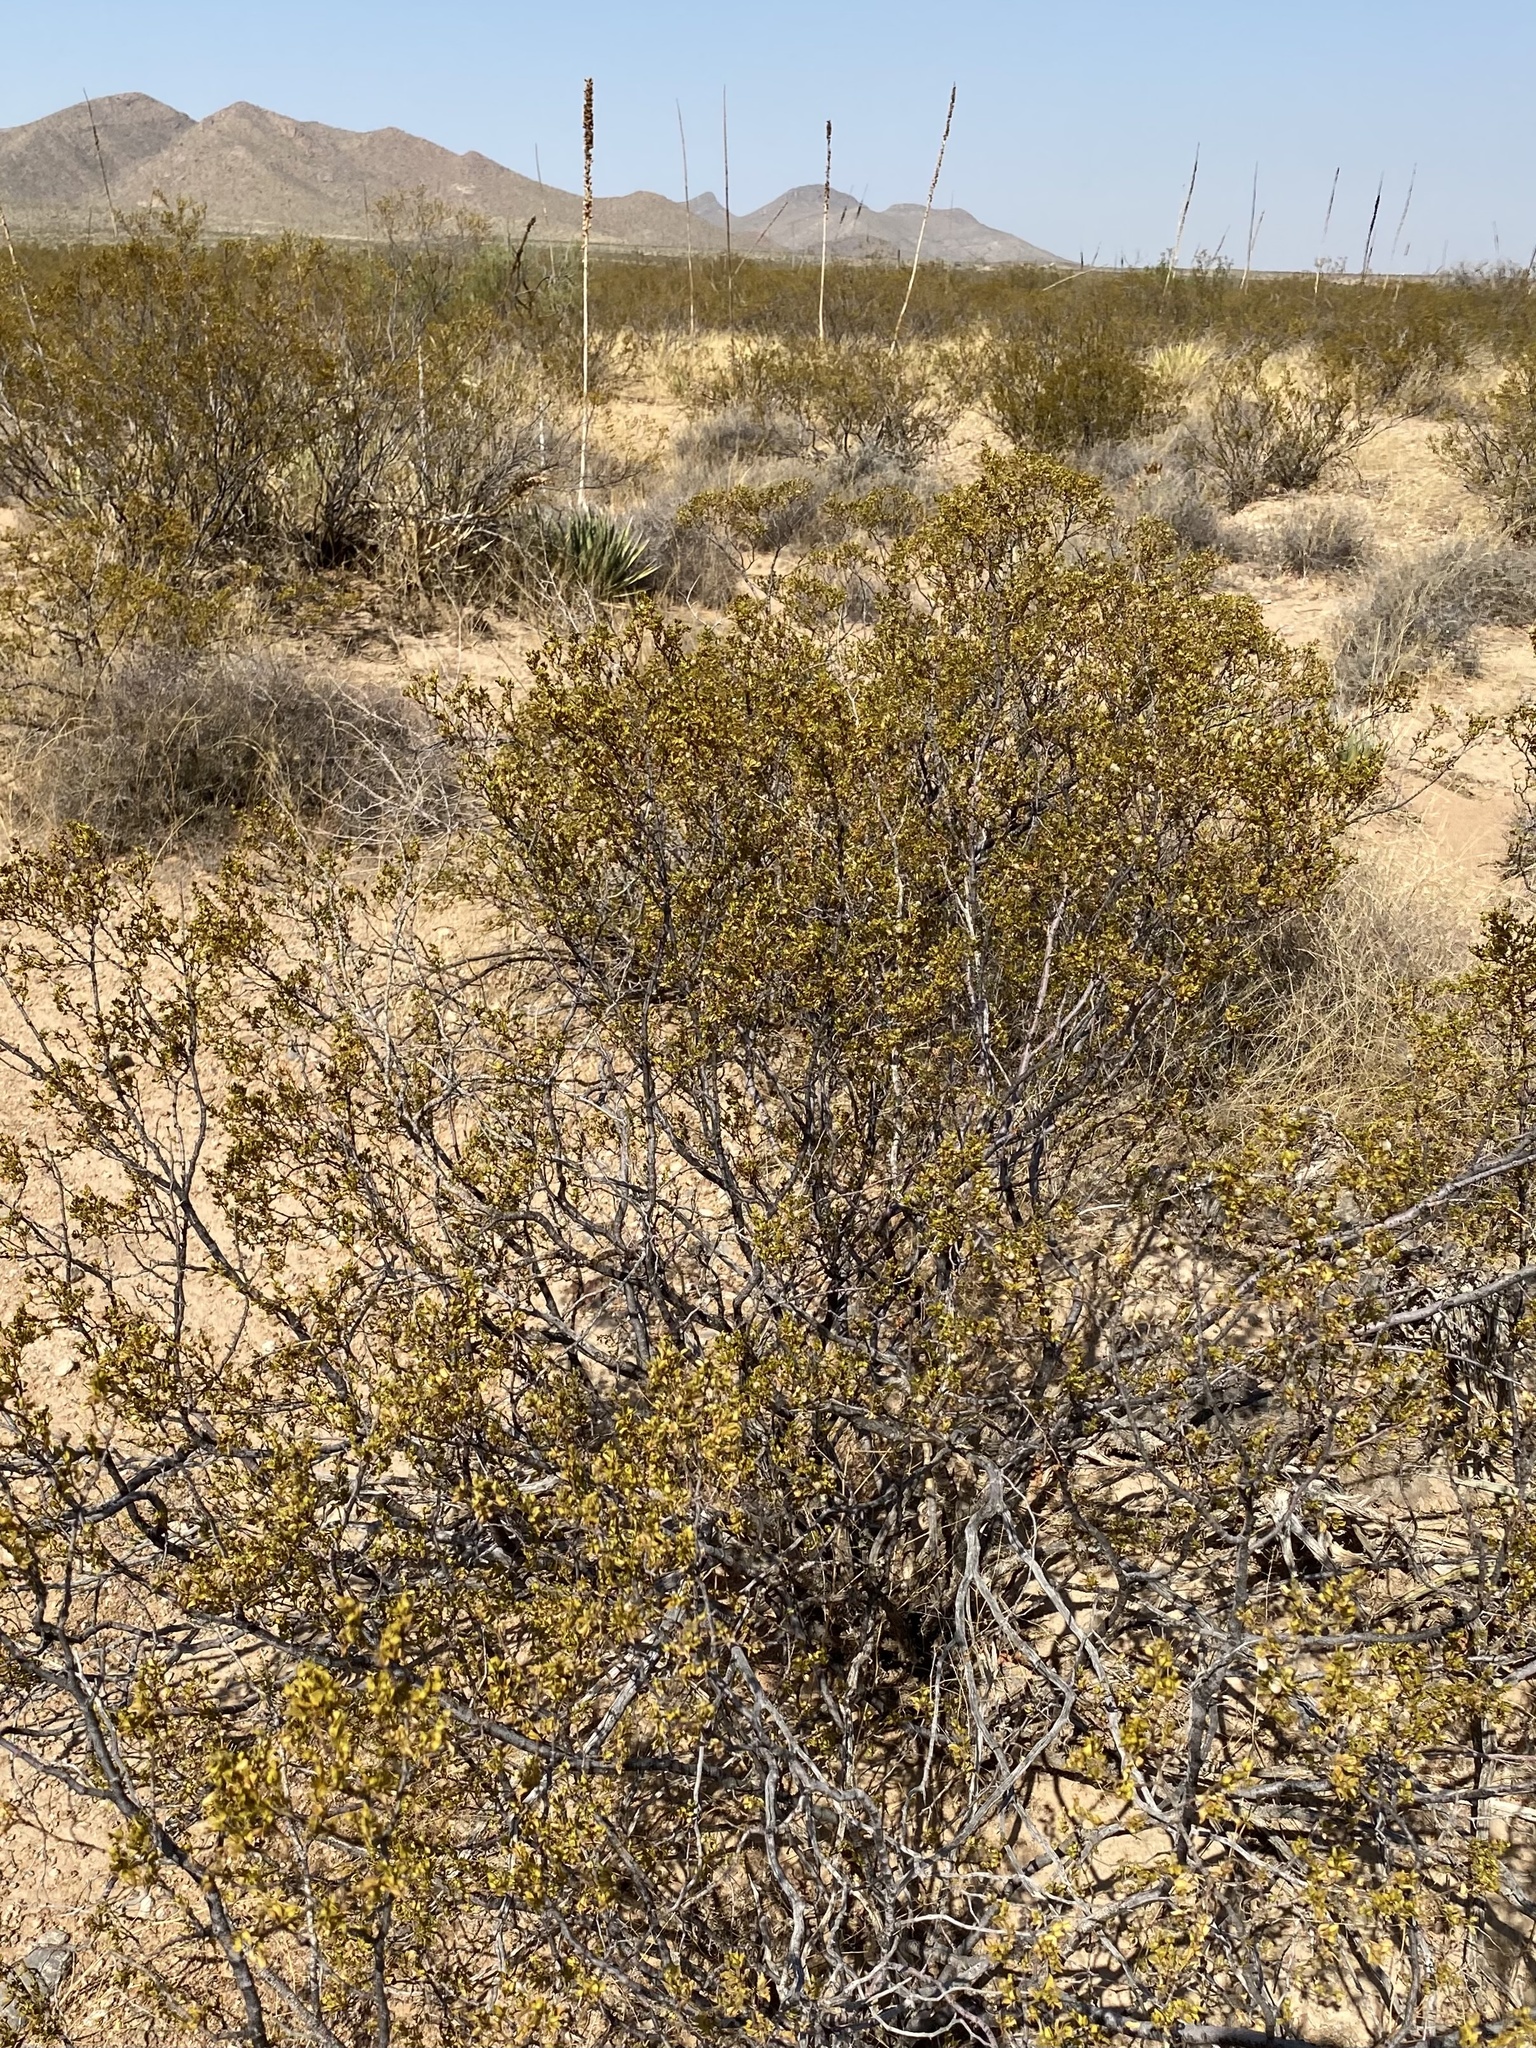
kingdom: Plantae
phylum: Tracheophyta
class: Magnoliopsida
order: Zygophyllales
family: Zygophyllaceae
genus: Larrea
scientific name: Larrea tridentata
